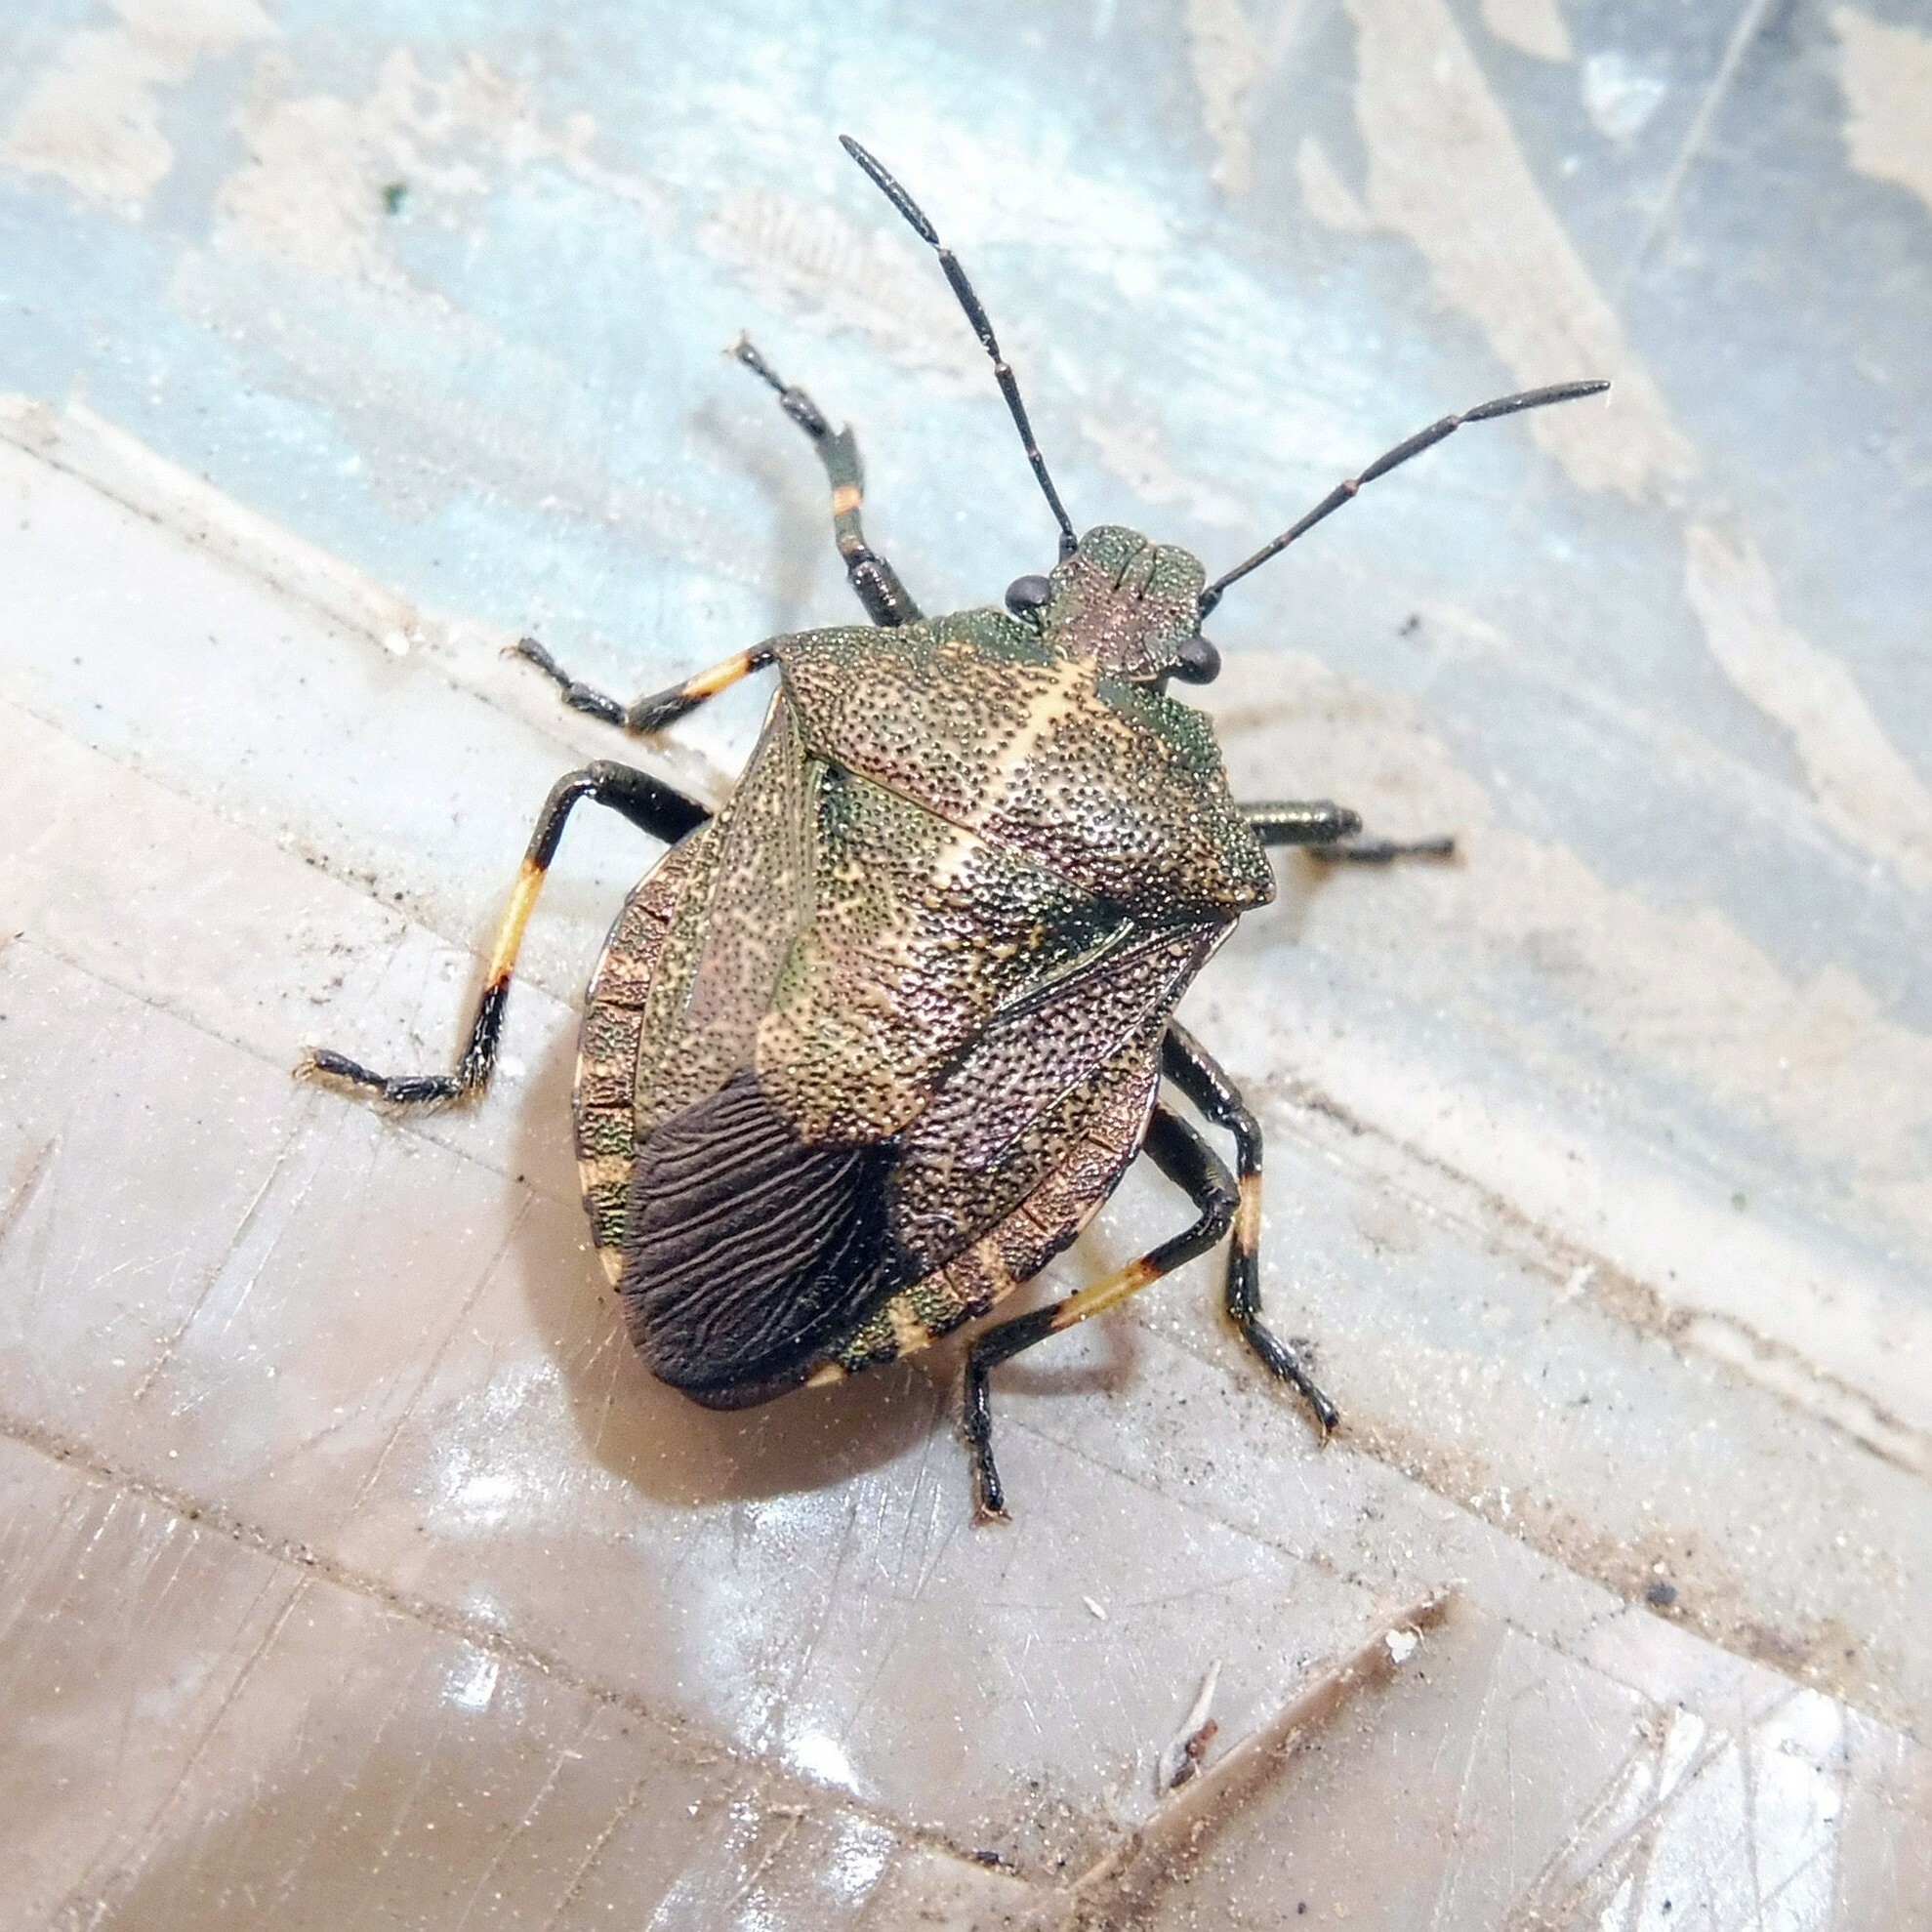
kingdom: Animalia
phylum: Arthropoda
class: Insecta
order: Hemiptera
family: Pentatomidae
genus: Rhacognathus
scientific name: Rhacognathus punctatus
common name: Heather bug
